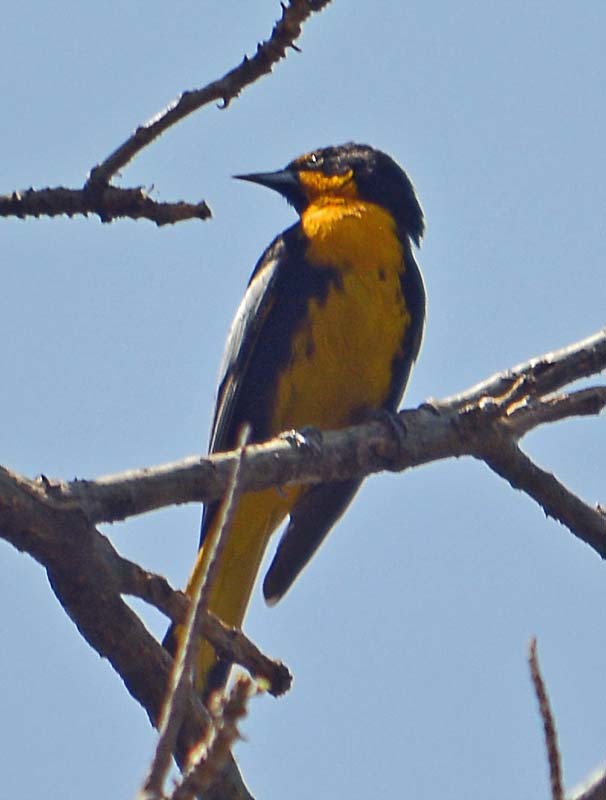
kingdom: Animalia
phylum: Chordata
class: Aves
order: Passeriformes
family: Icteridae
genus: Icterus
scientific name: Icterus abeillei
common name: Black-backed oriole
